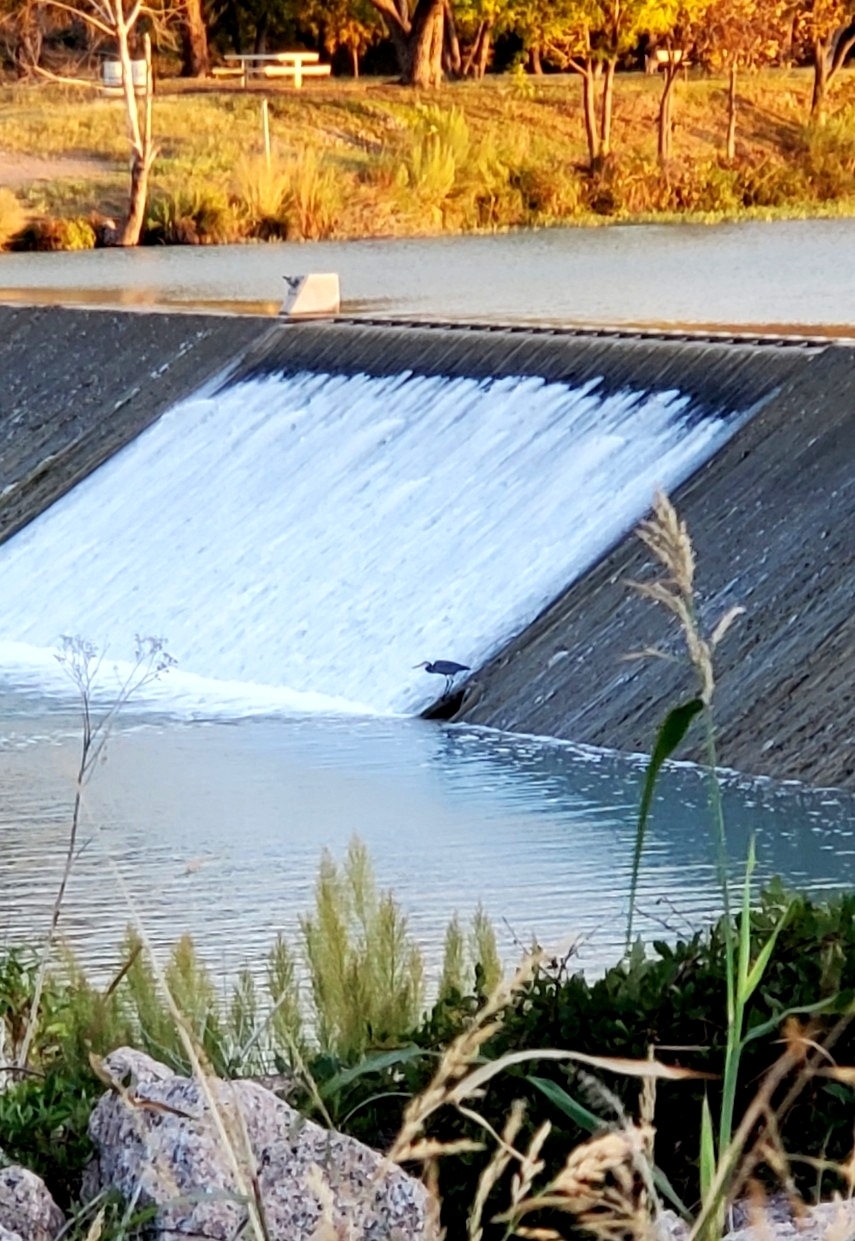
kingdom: Animalia
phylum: Chordata
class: Aves
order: Pelecaniformes
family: Ardeidae
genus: Ardea
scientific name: Ardea herodias
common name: Great blue heron
